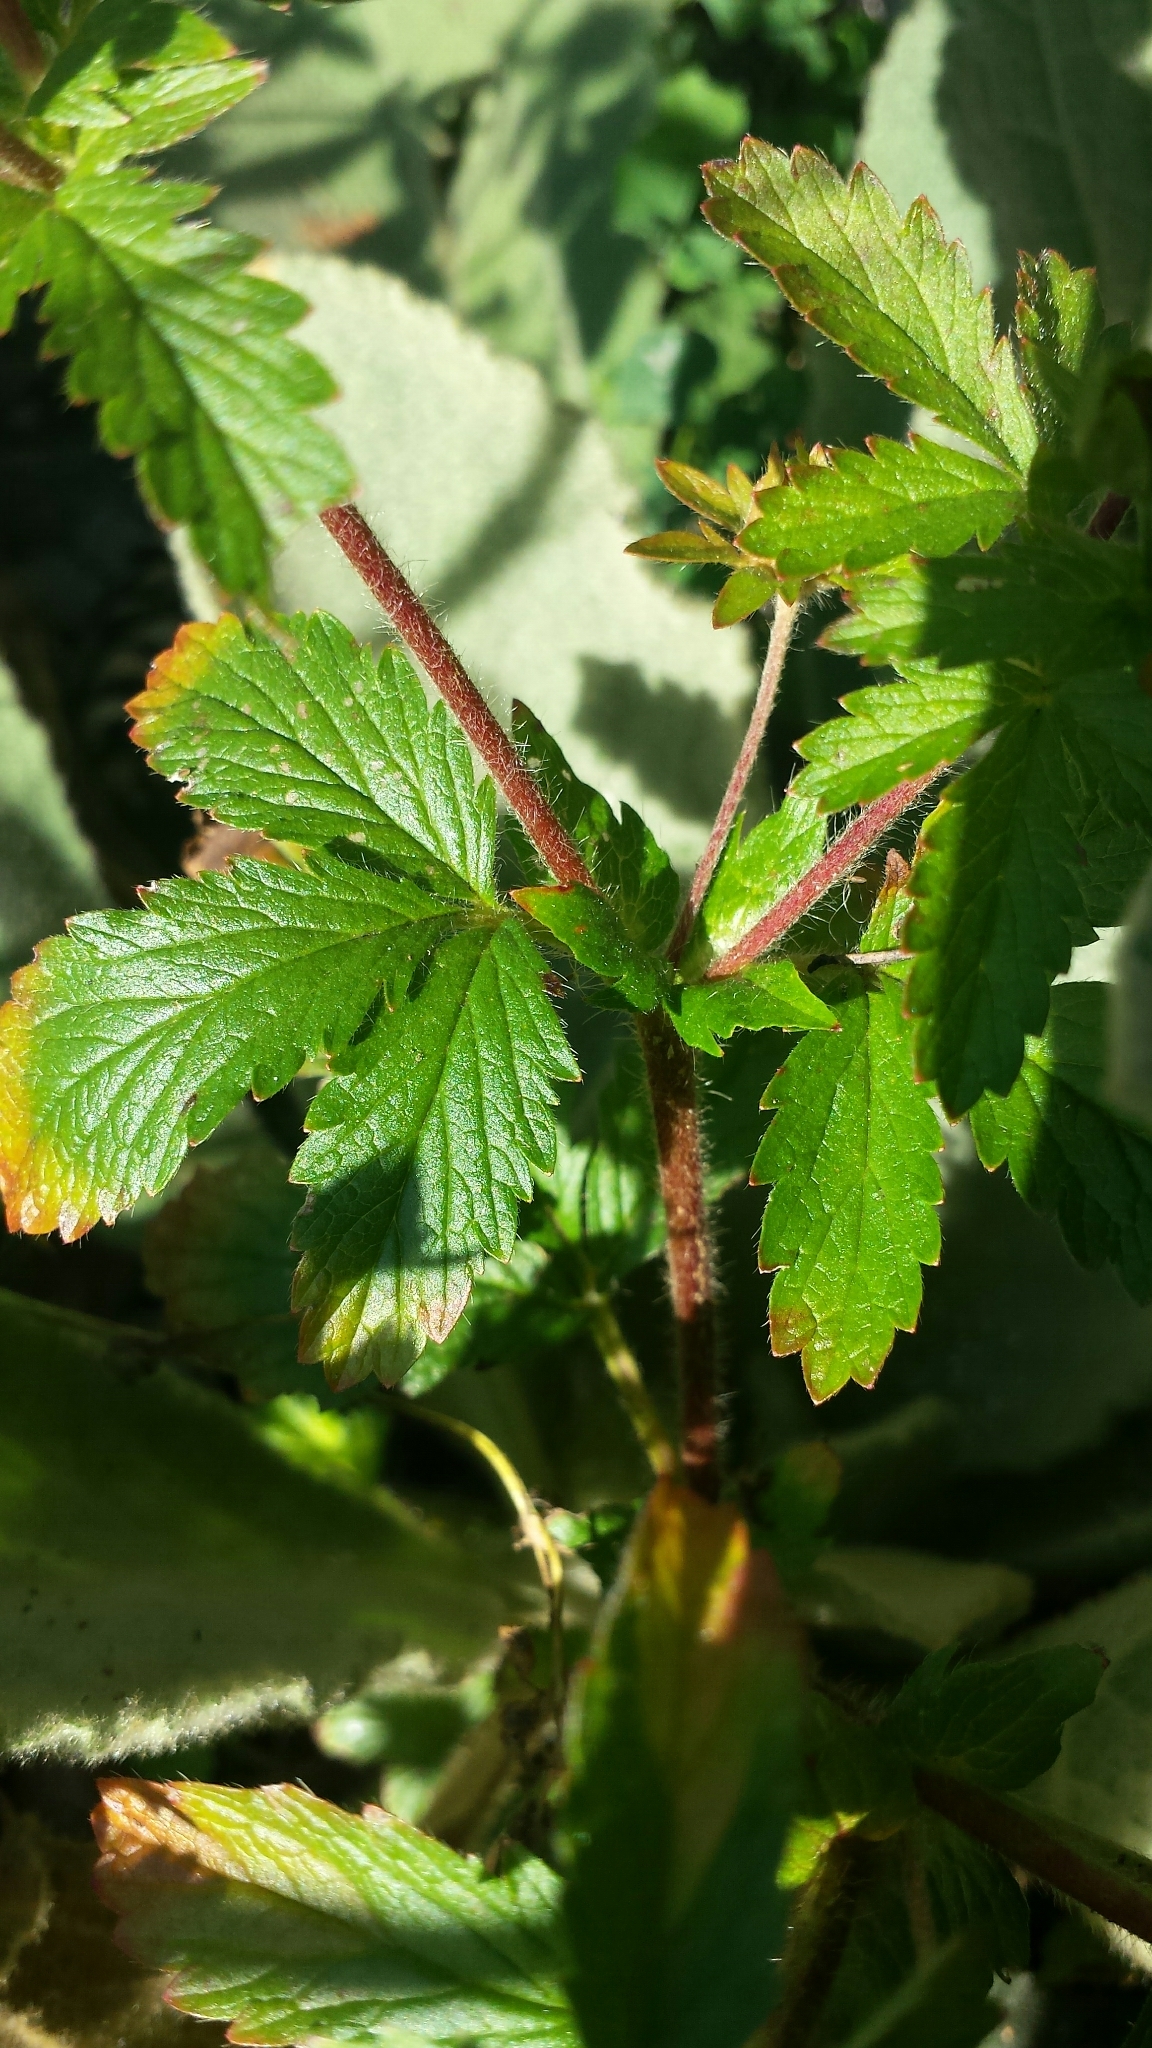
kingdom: Plantae
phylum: Tracheophyta
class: Magnoliopsida
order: Rosales
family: Rosaceae
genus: Potentilla
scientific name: Potentilla norvegica
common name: Ternate-leaved cinquefoil
